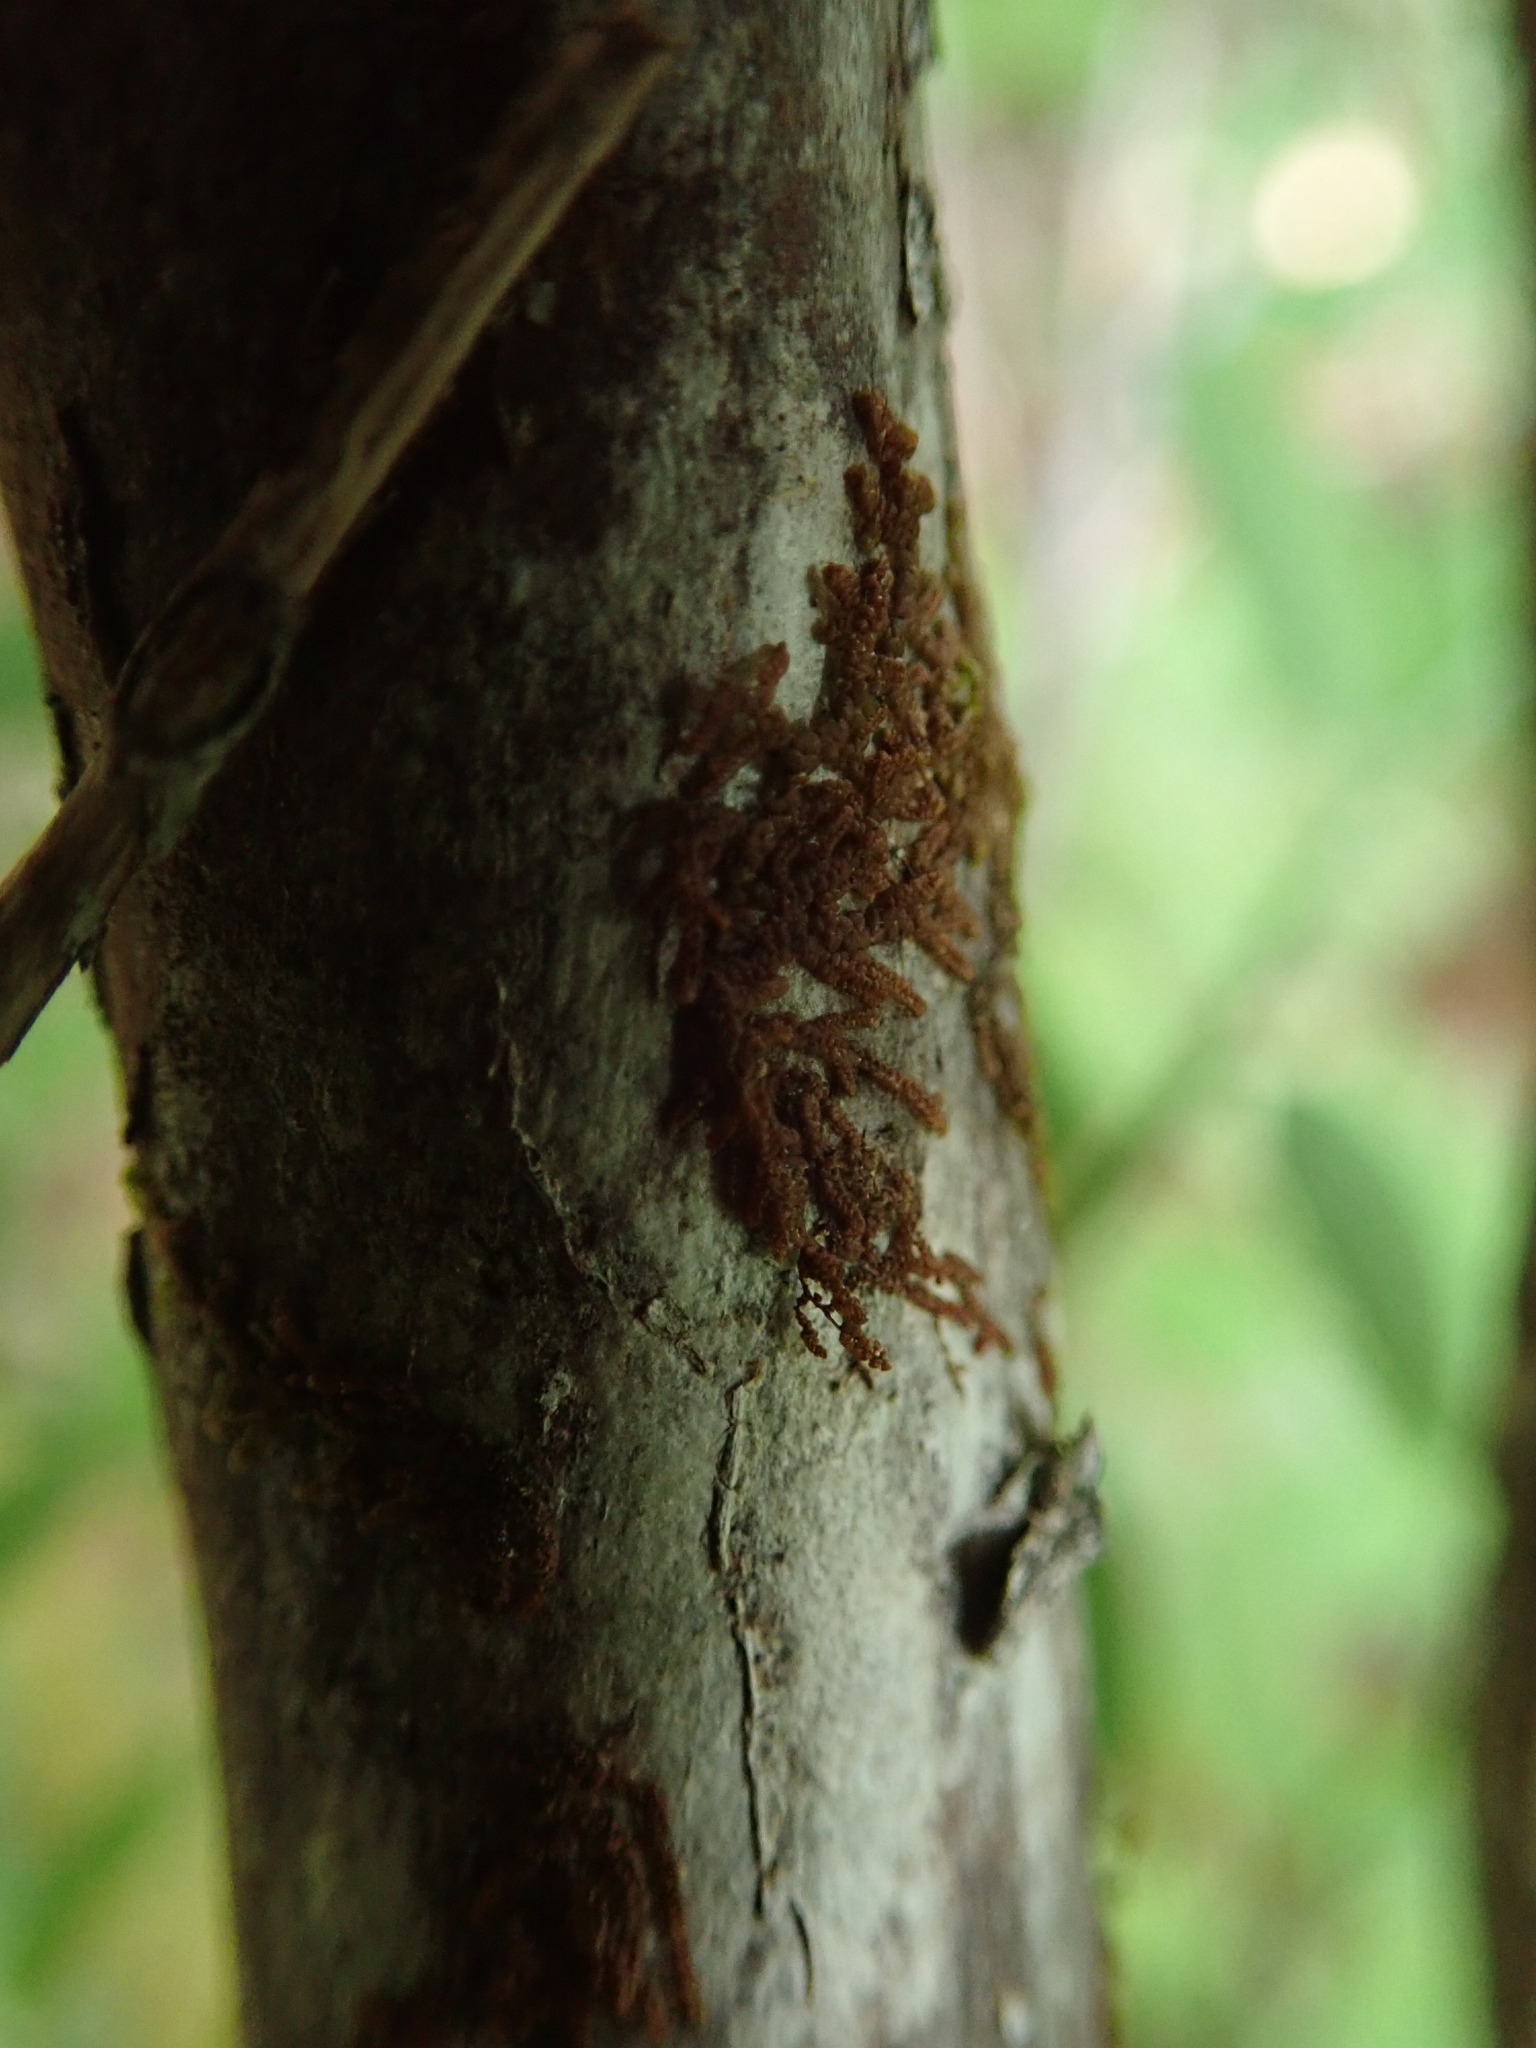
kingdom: Plantae
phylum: Marchantiophyta
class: Jungermanniopsida
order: Porellales
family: Frullaniaceae
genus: Frullania
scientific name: Frullania nisquallensis
